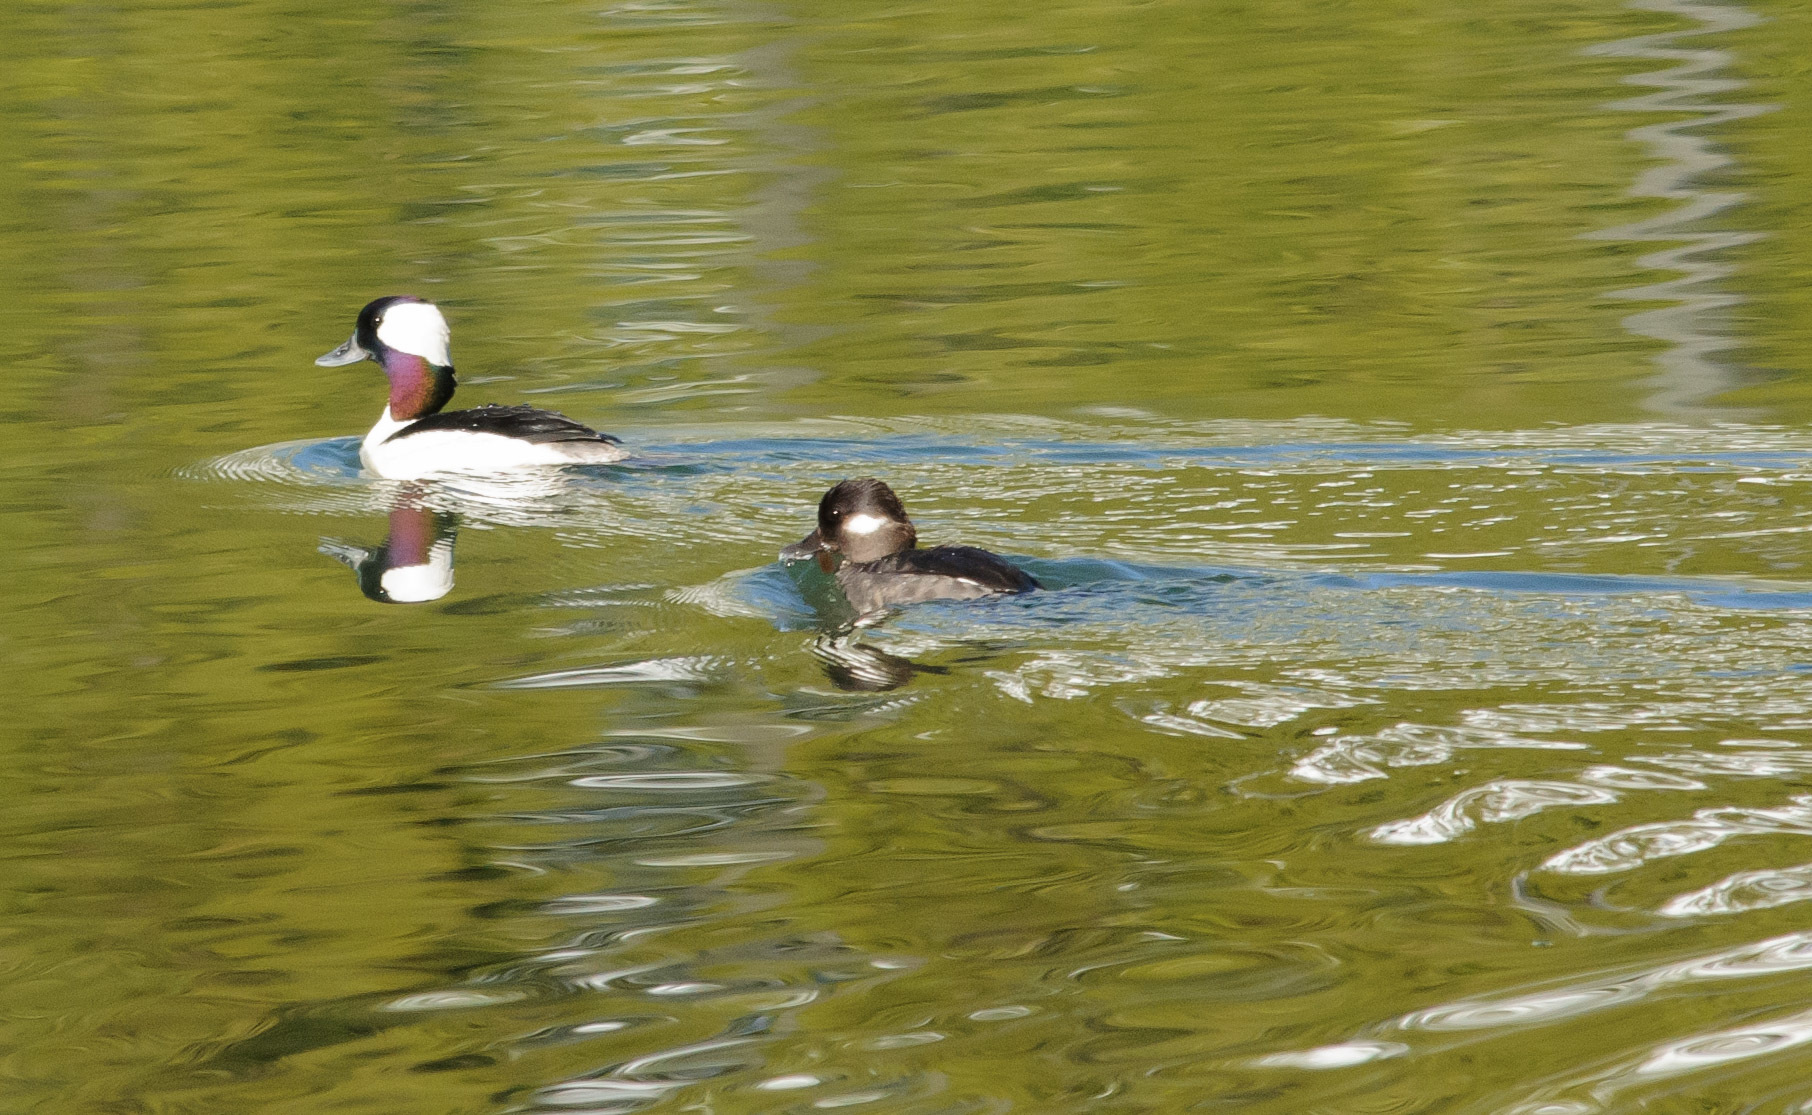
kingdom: Animalia
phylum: Chordata
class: Aves
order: Anseriformes
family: Anatidae
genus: Bucephala
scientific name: Bucephala albeola
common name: Bufflehead
